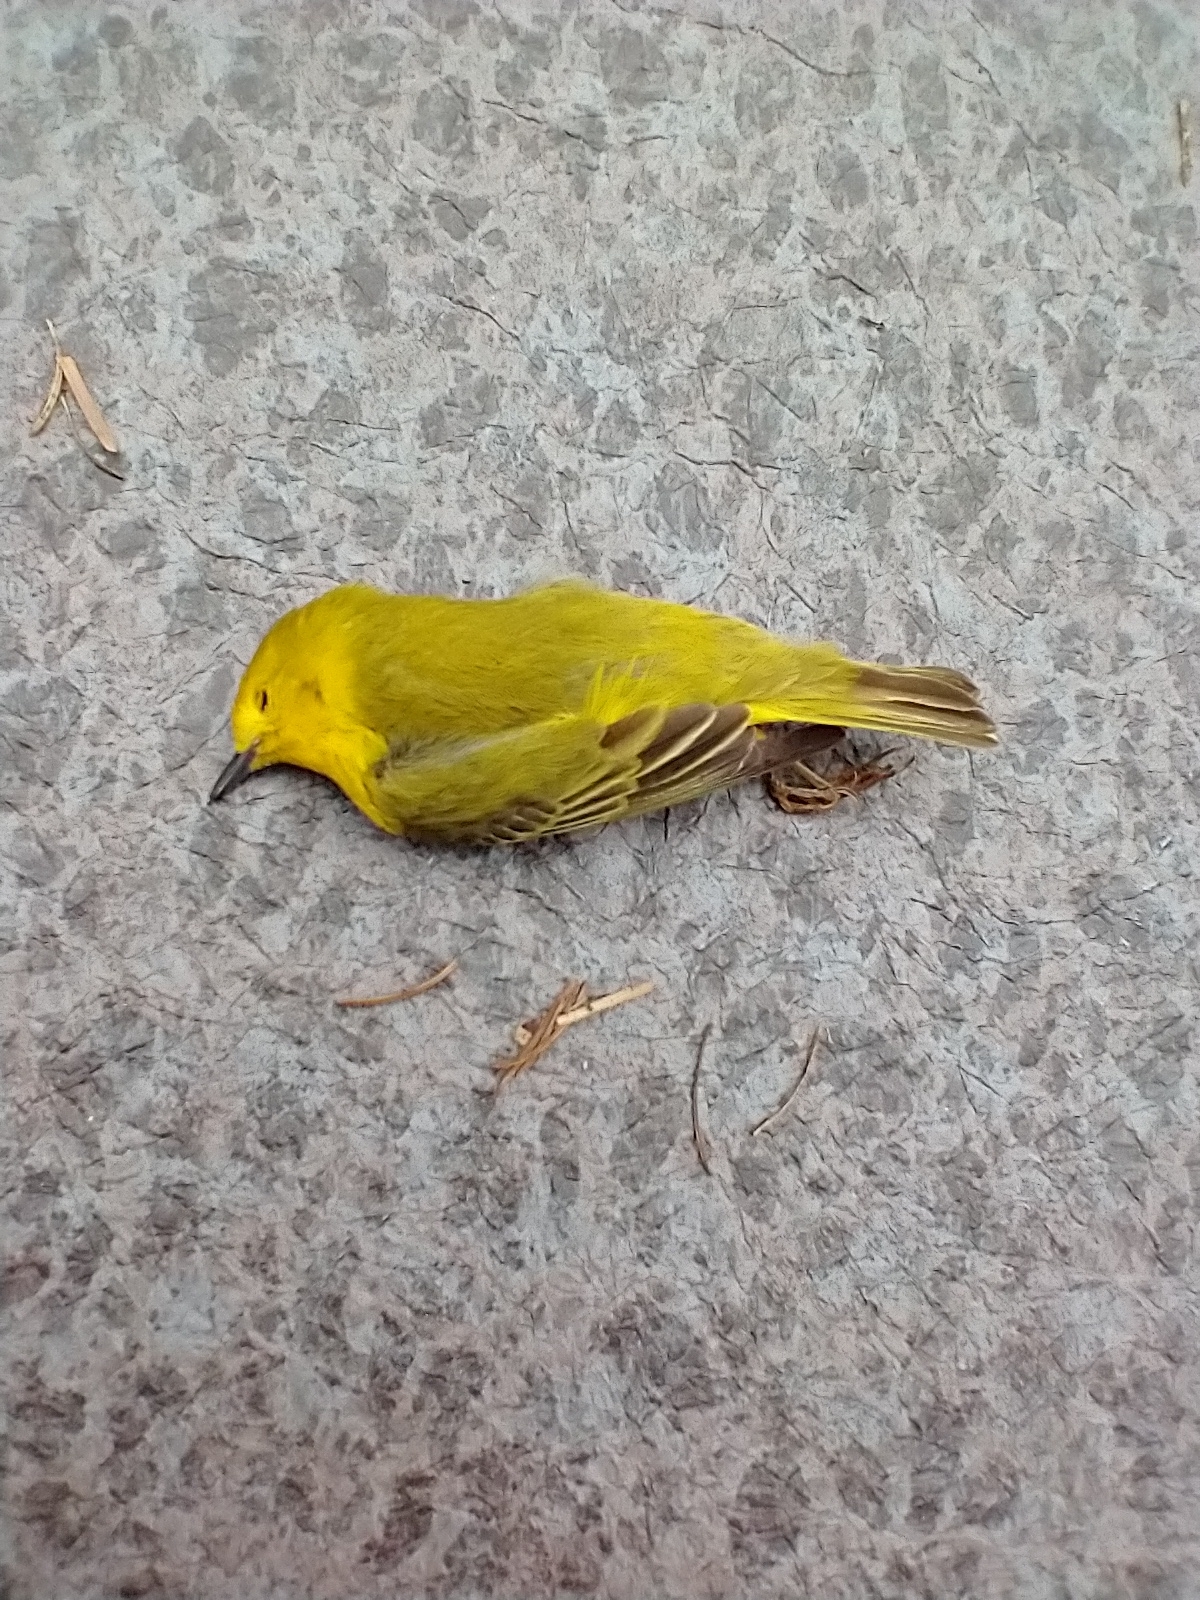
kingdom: Animalia
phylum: Chordata
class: Aves
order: Passeriformes
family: Parulidae
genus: Setophaga
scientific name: Setophaga petechia
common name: Yellow warbler
